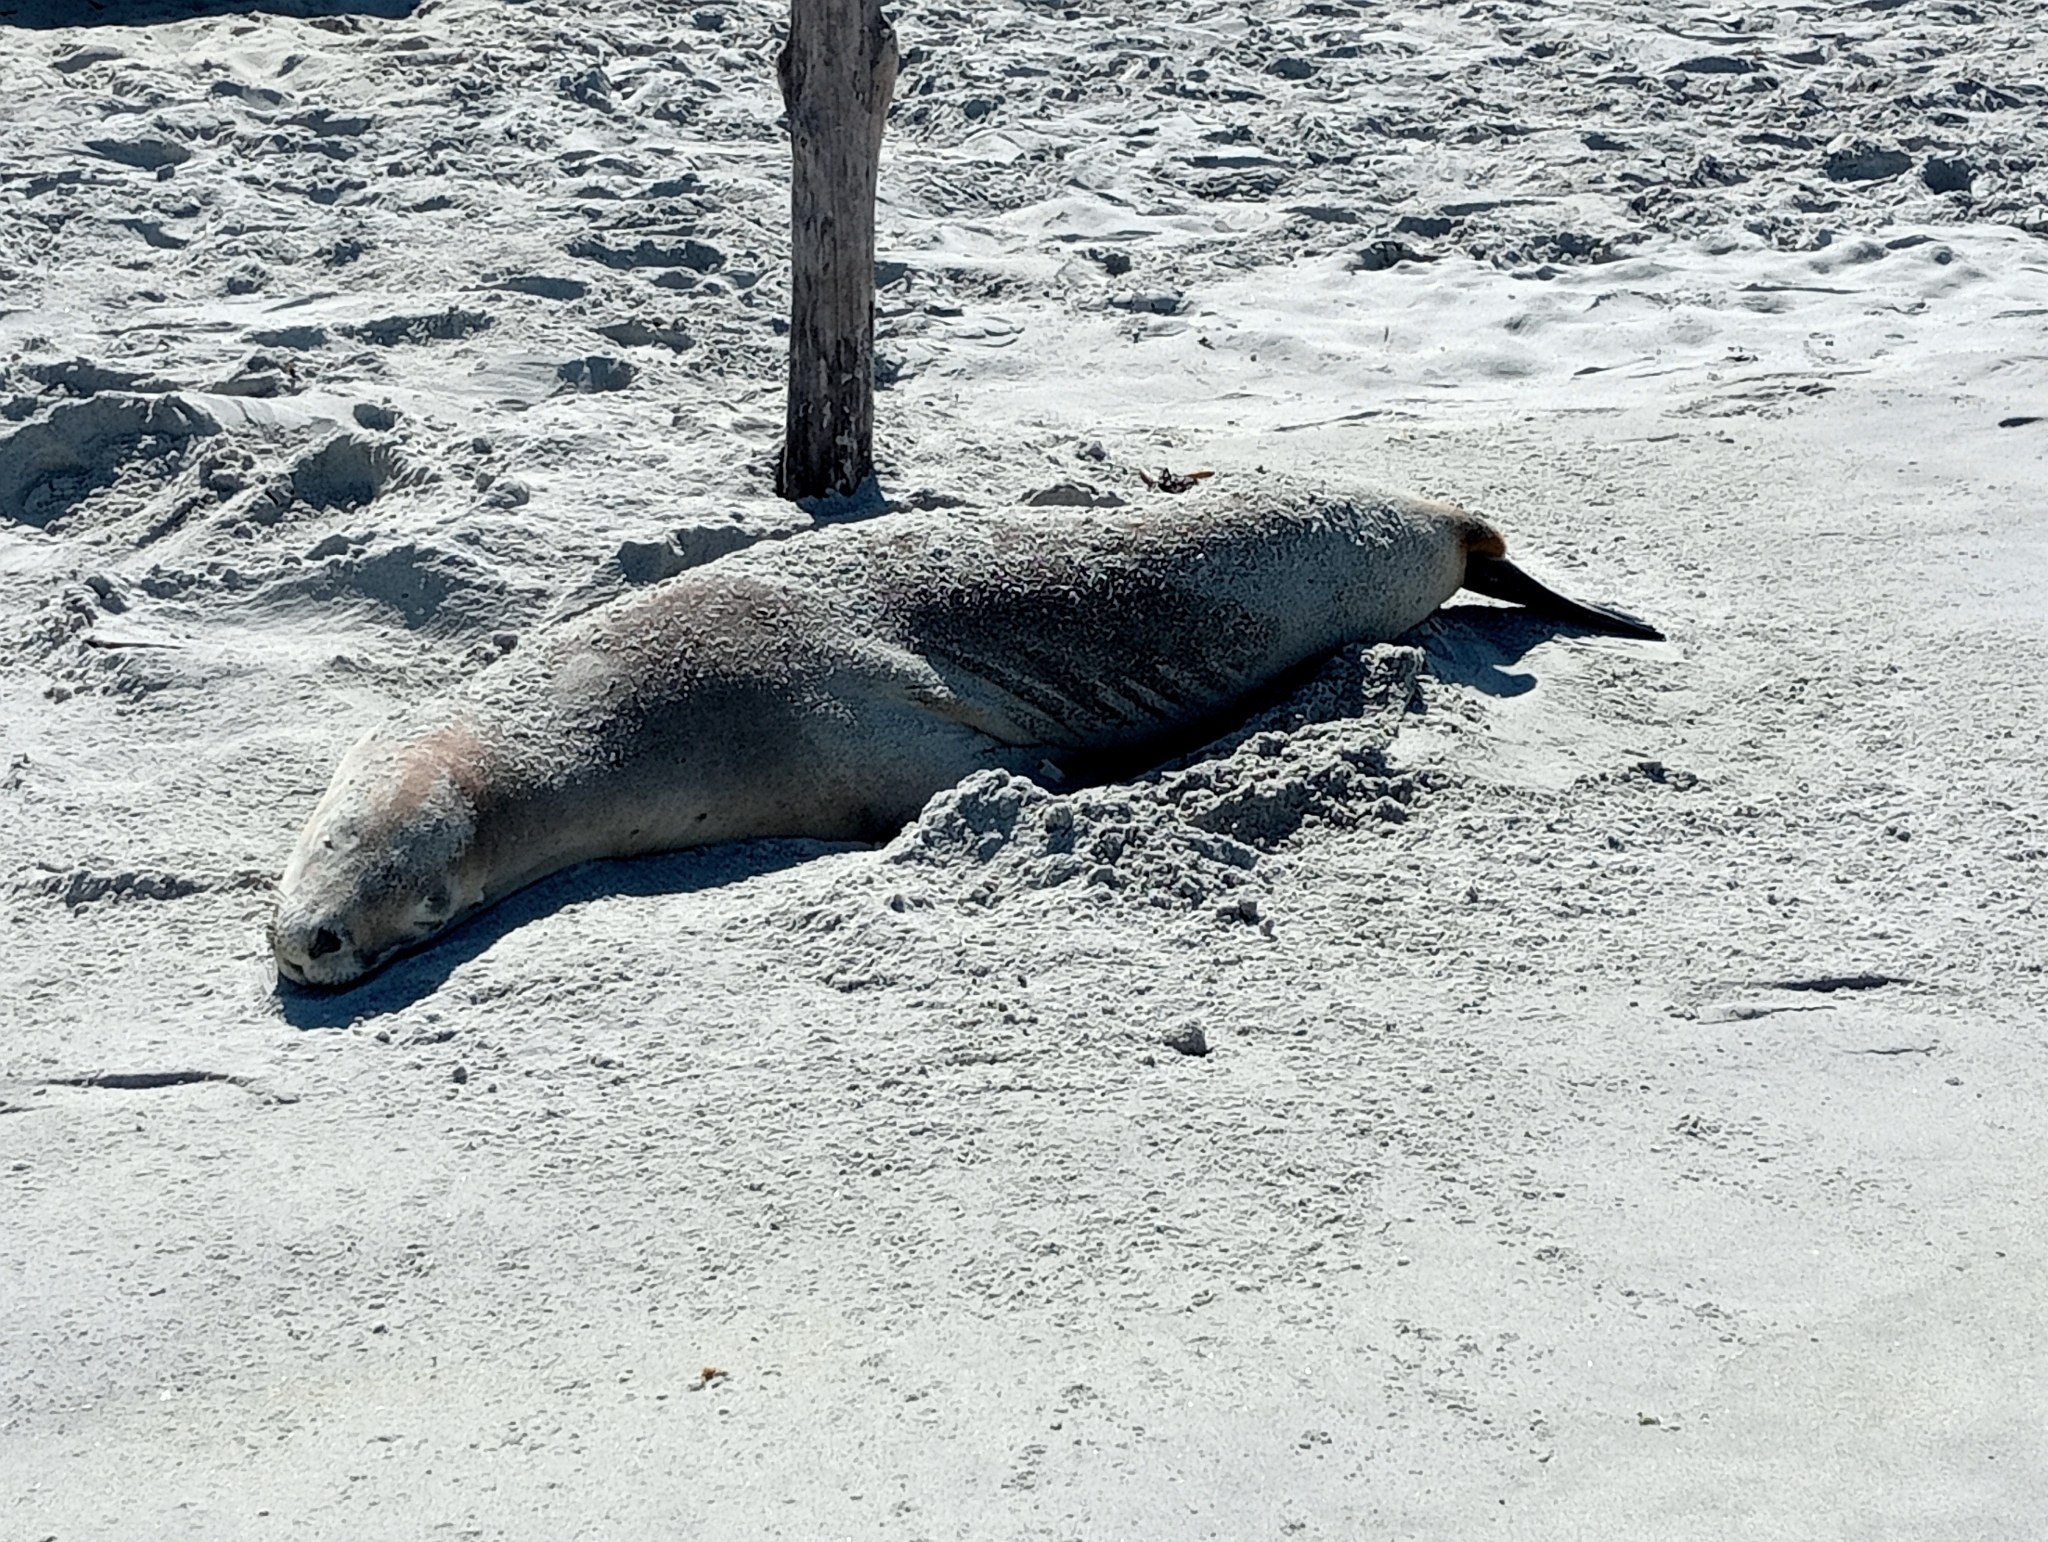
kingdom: Animalia
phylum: Chordata
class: Mammalia
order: Carnivora
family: Otariidae
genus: Phocarctos
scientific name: Phocarctos hookeri
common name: New zealand sea lion
